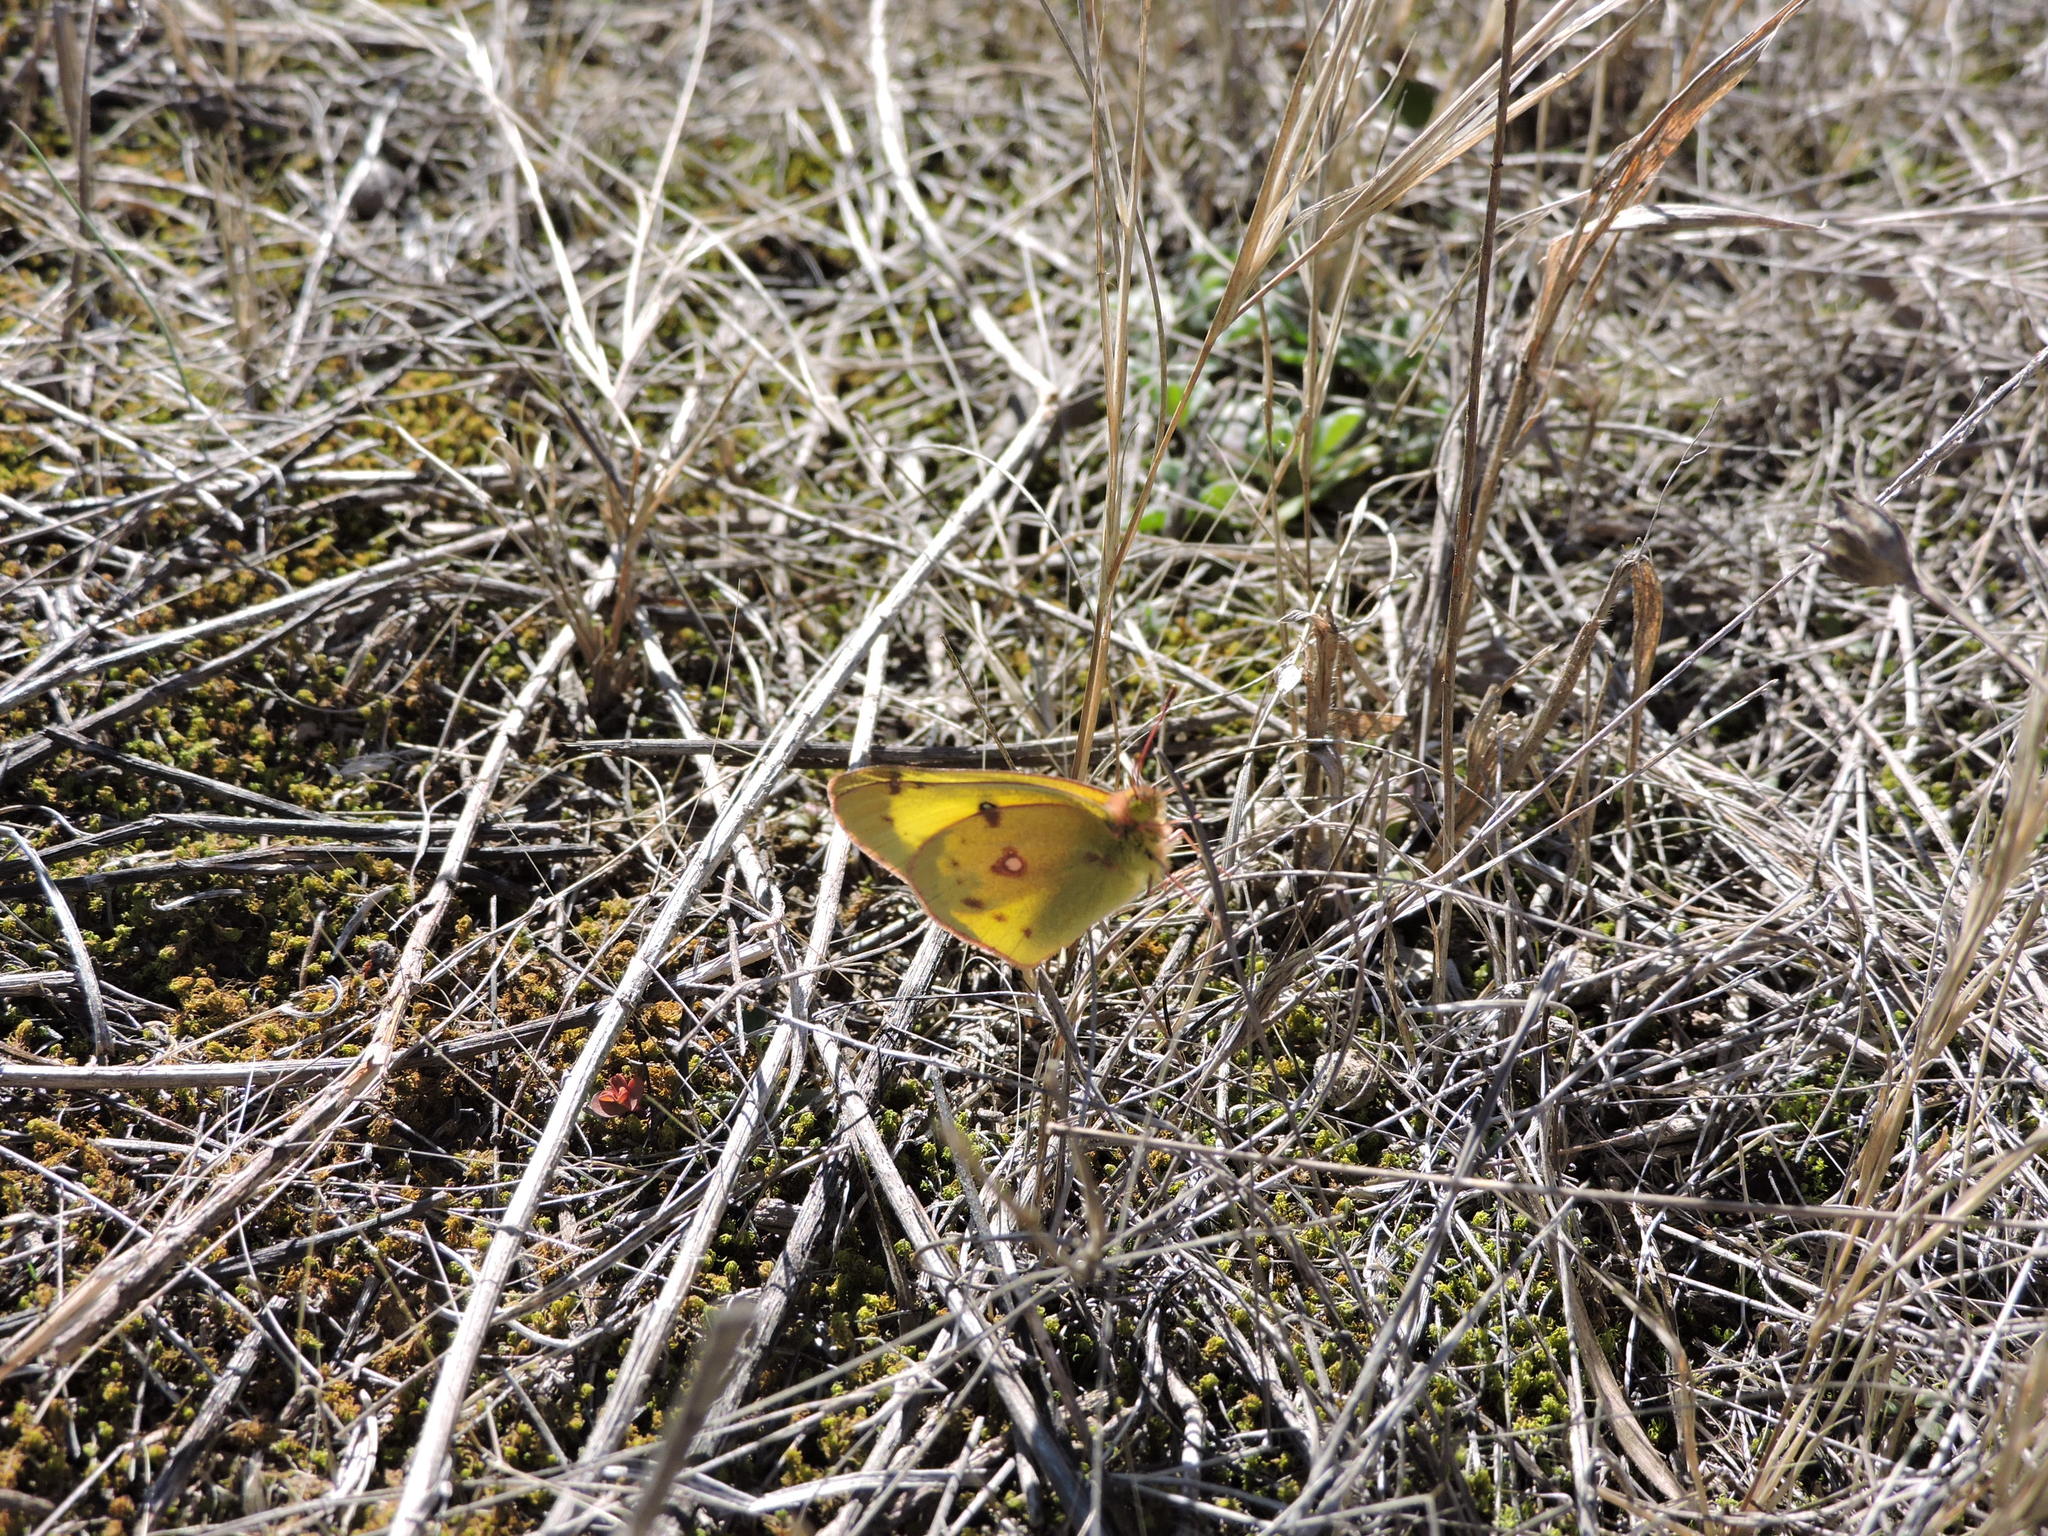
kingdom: Animalia
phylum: Arthropoda
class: Insecta
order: Lepidoptera
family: Pieridae
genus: Colias
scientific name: Colias eurytheme
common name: Alfalfa butterfly
